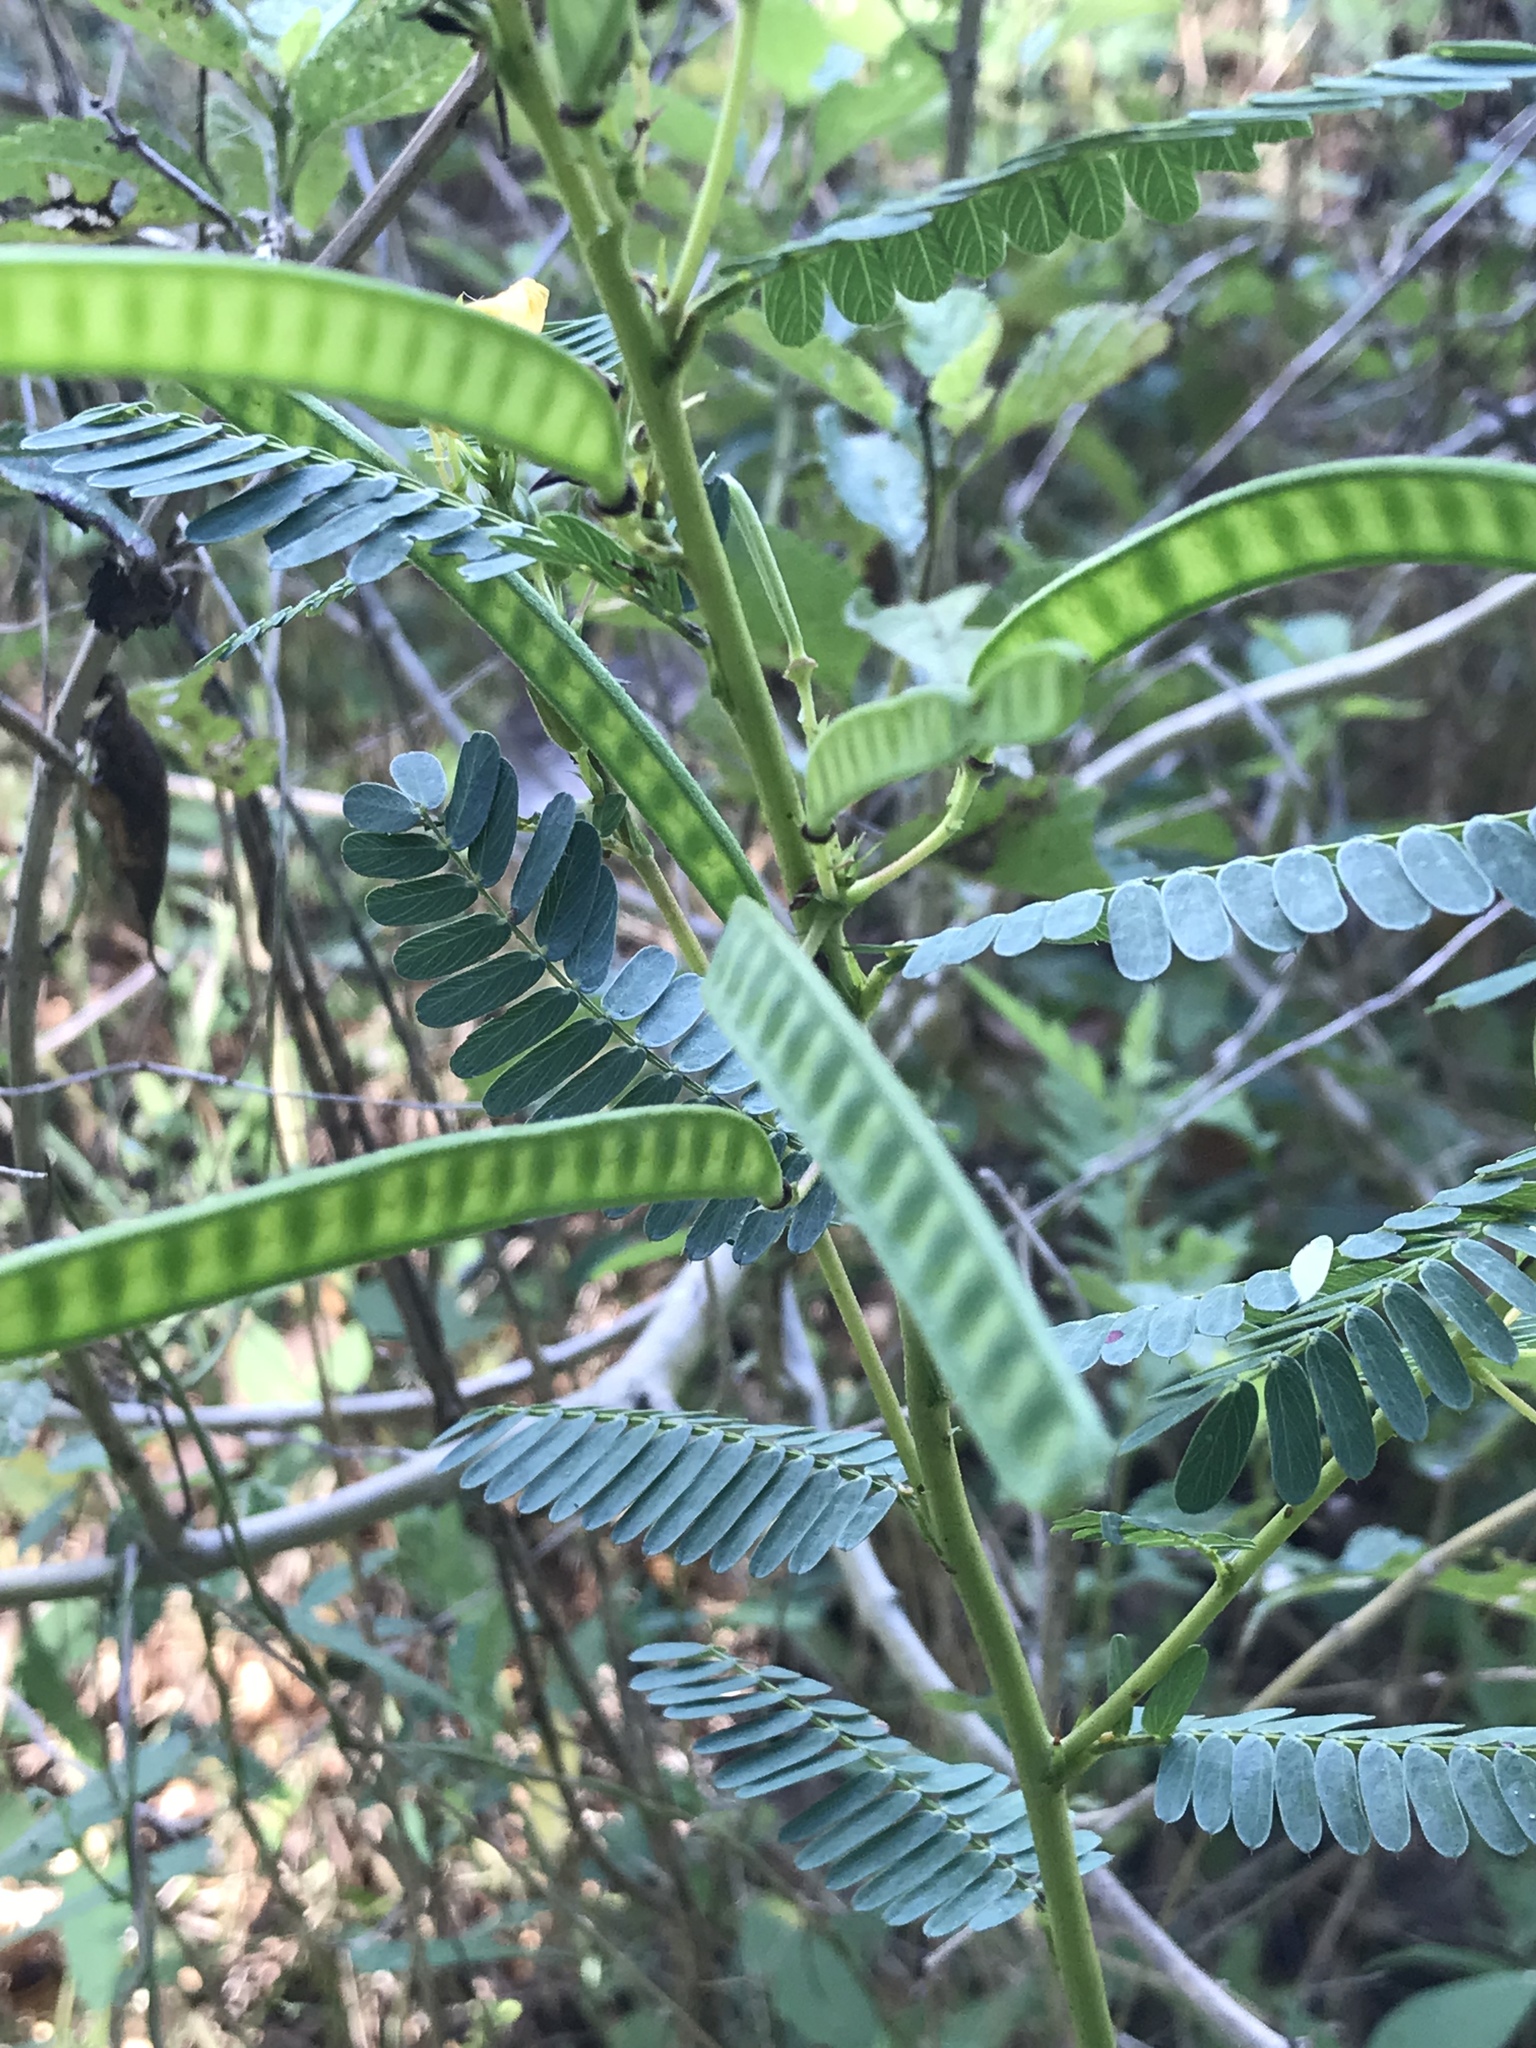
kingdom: Plantae
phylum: Tracheophyta
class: Magnoliopsida
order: Fabales
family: Fabaceae
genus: Chamaecrista
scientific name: Chamaecrista fasciculata
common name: Golden cassia
